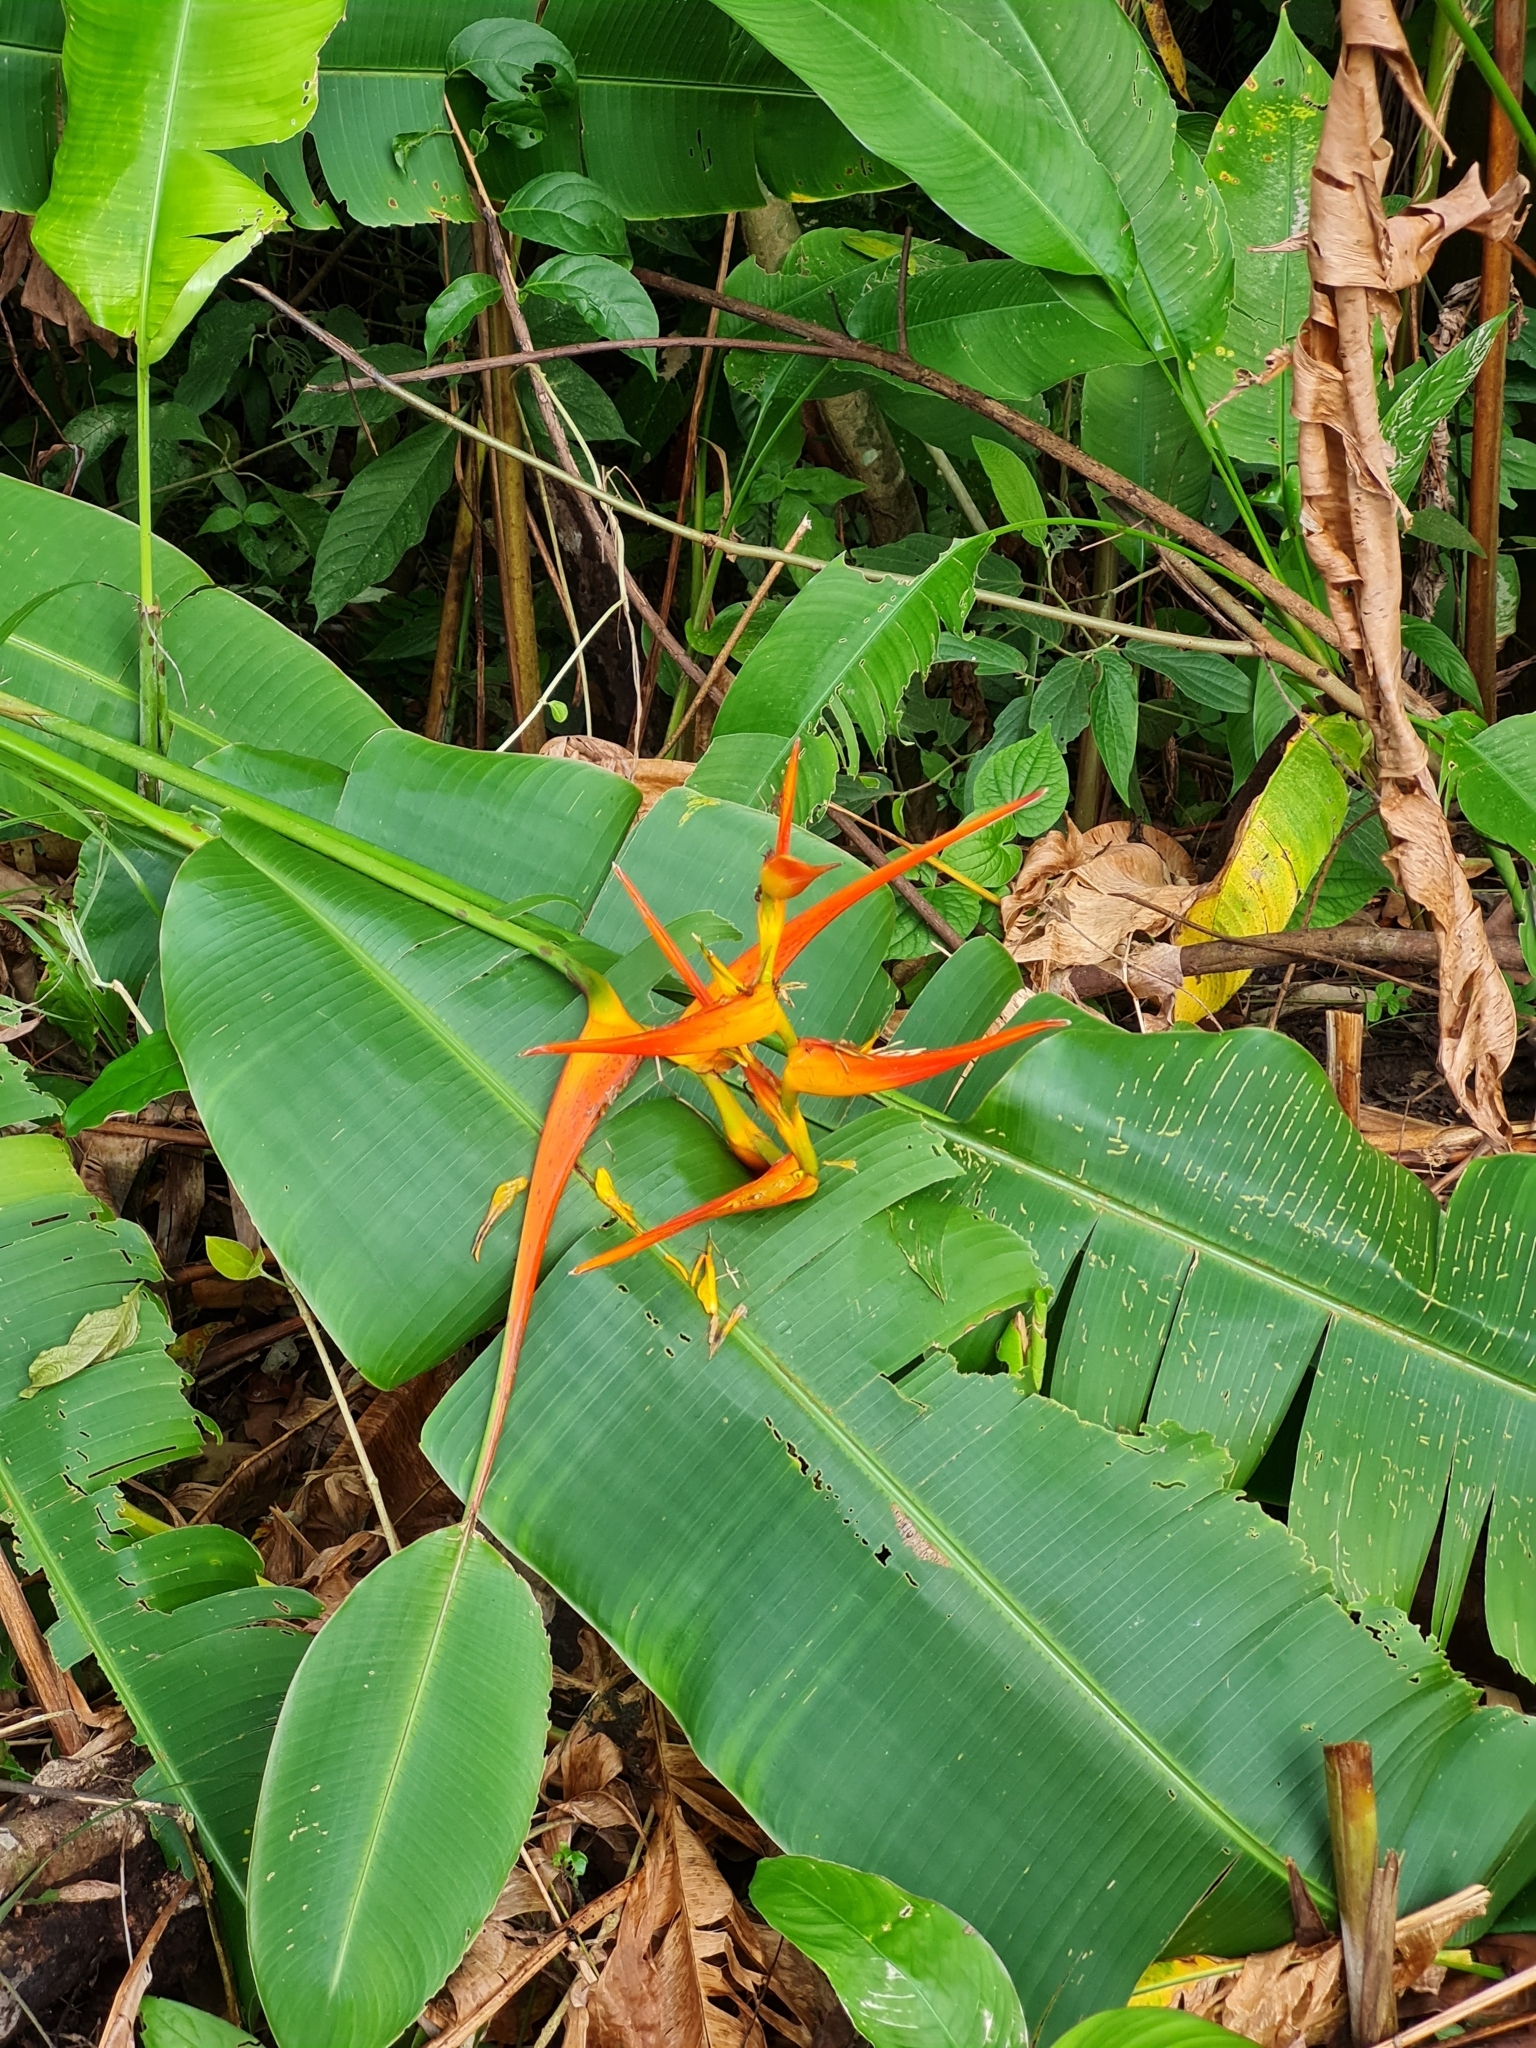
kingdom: Plantae
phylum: Tracheophyta
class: Liliopsida
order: Zingiberales
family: Heliconiaceae
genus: Heliconia
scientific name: Heliconia latispatha
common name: Expanded lobsterclaw
